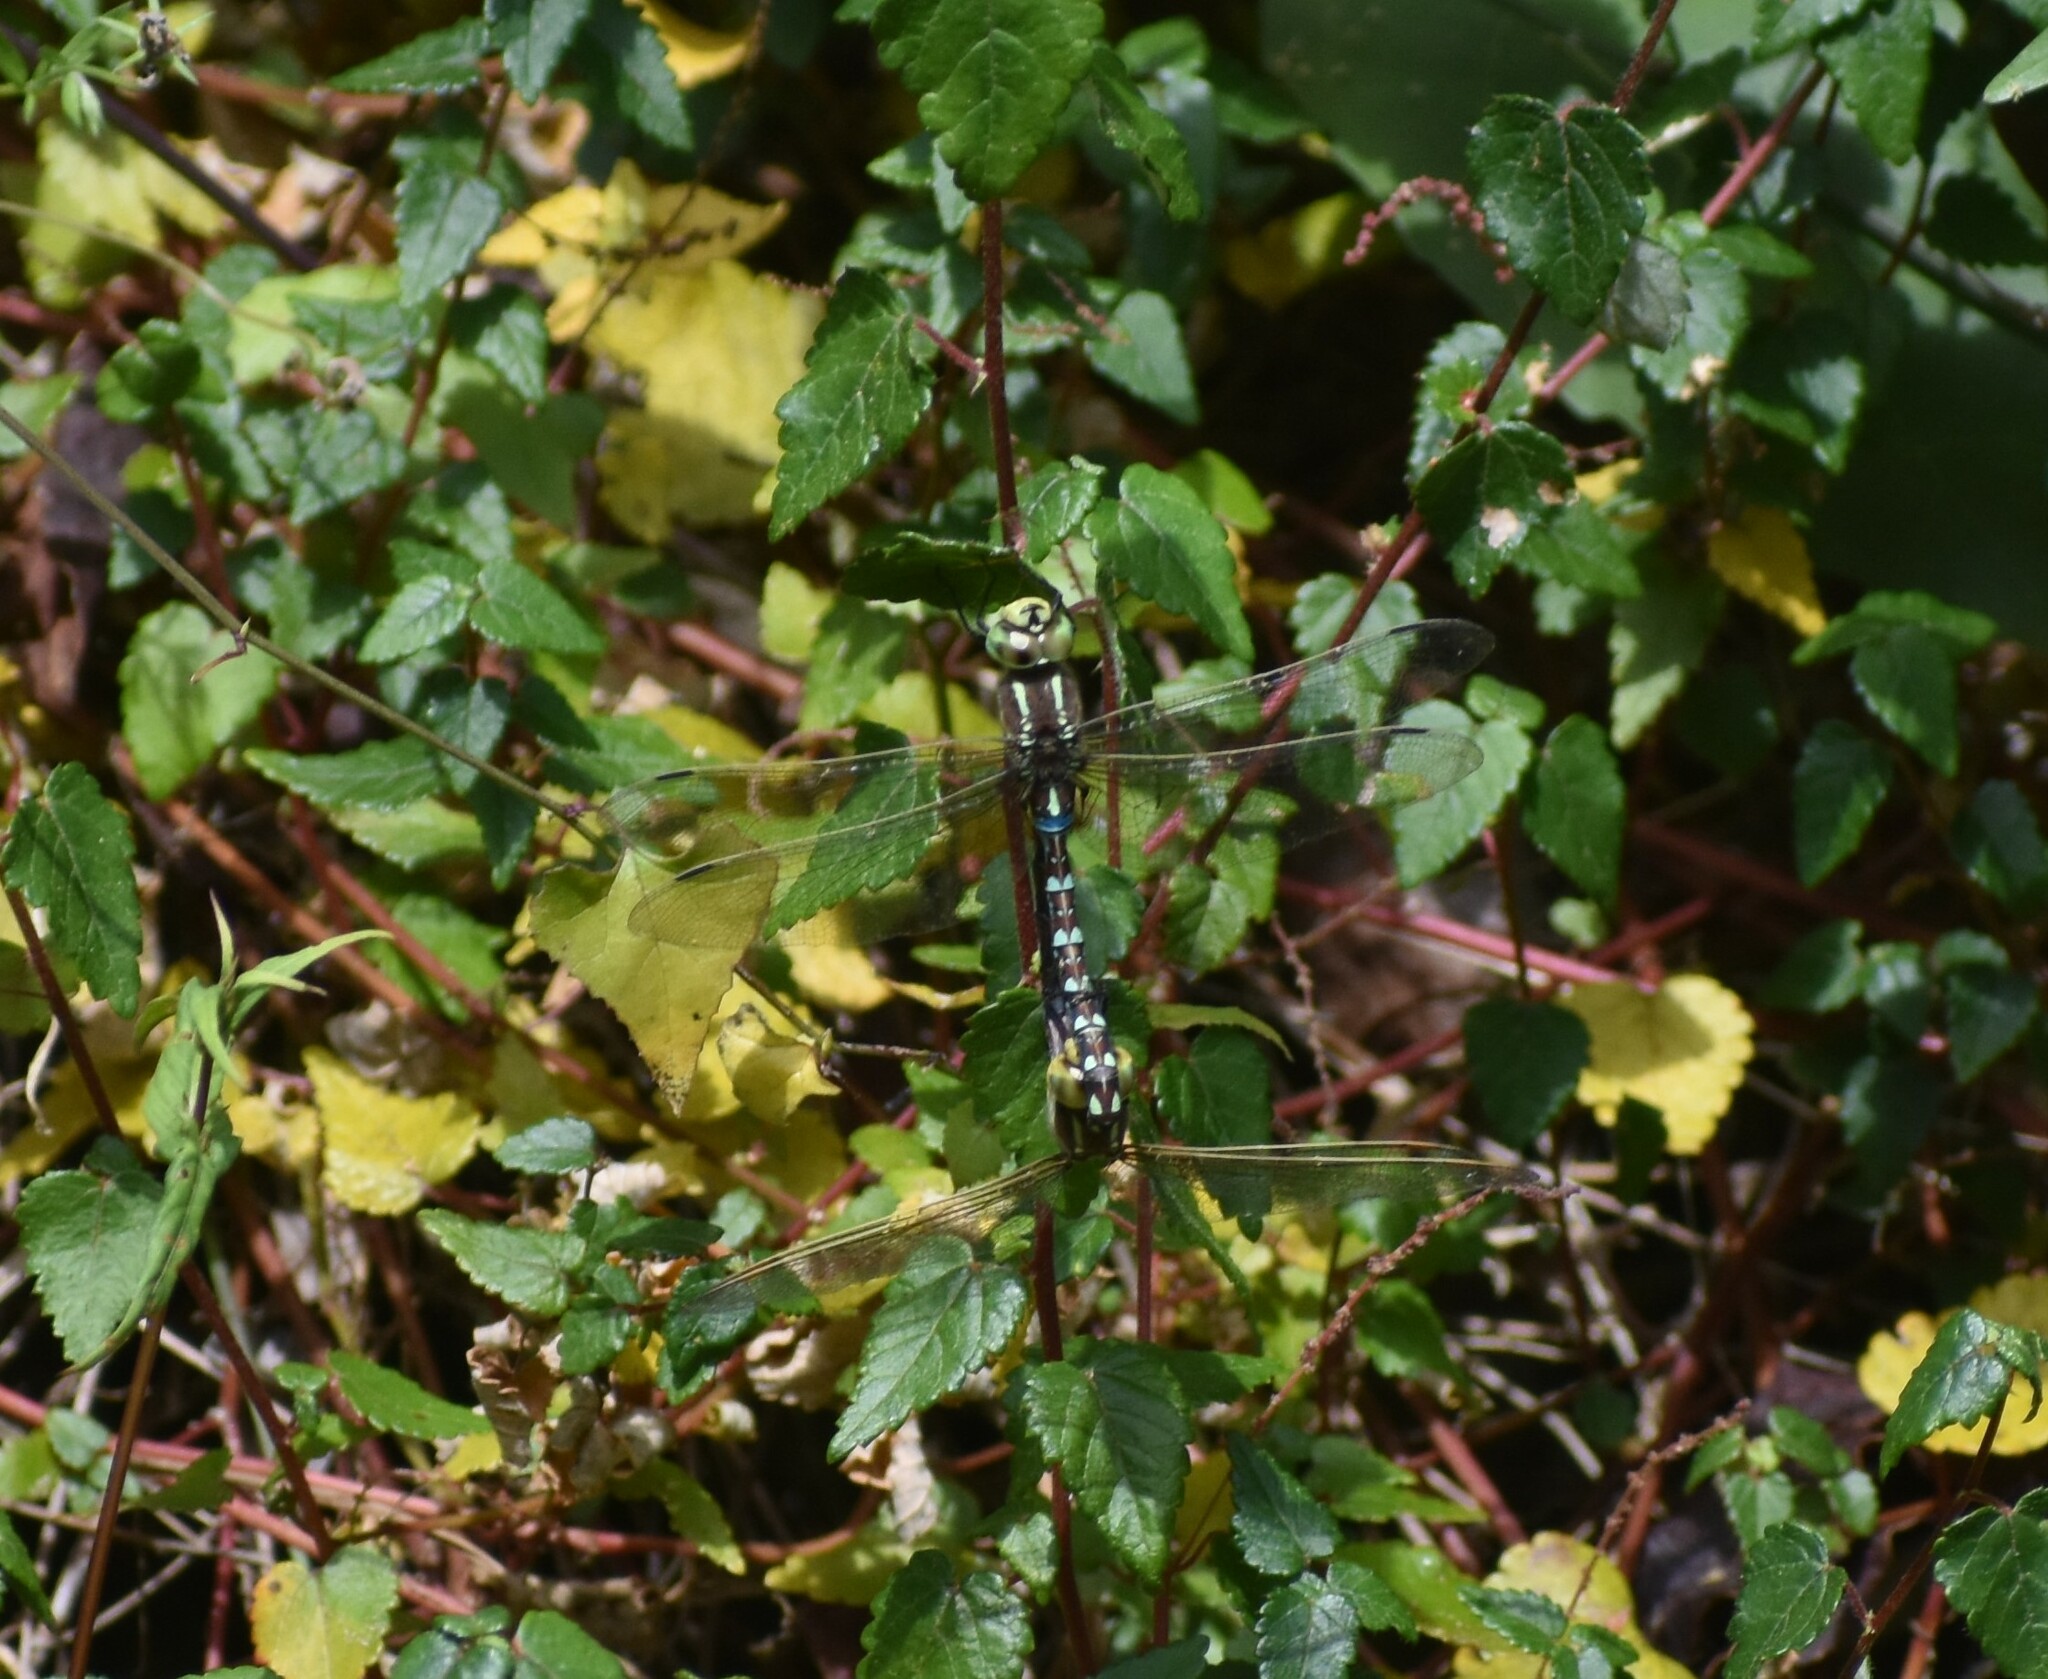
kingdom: Animalia
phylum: Arthropoda
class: Insecta
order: Odonata
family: Aeshnidae
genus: Zosteraeschna
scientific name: Zosteraeschna minuscula
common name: Friendly hawker
